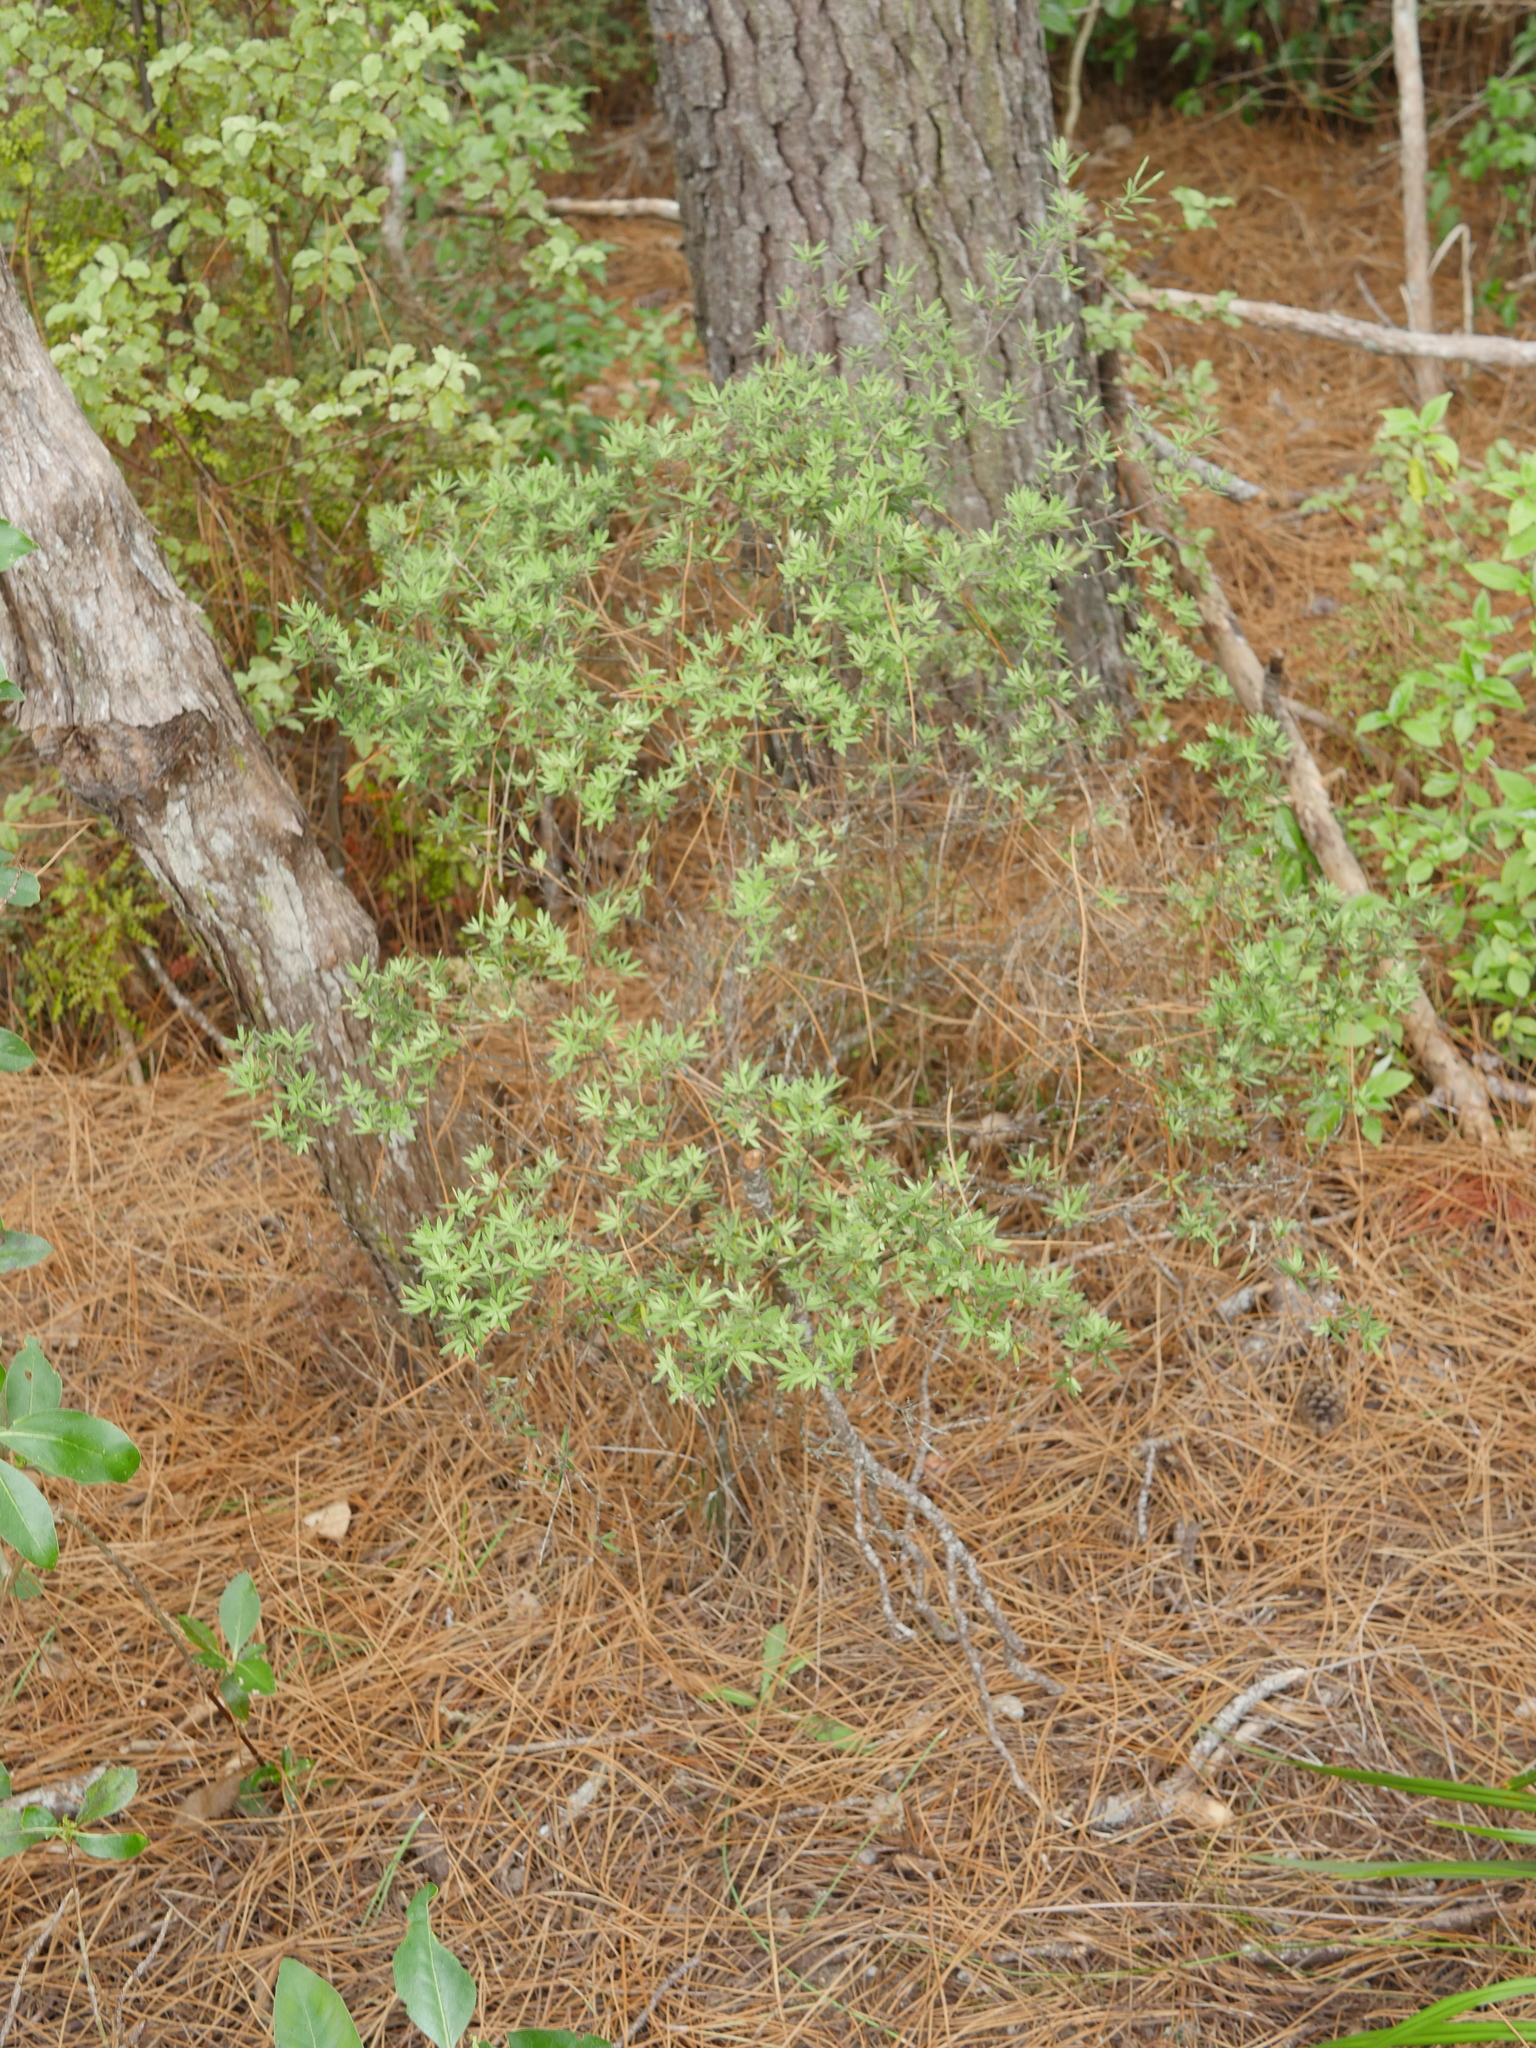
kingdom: Plantae
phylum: Tracheophyta
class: Magnoliopsida
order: Ericales
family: Ericaceae
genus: Leucopogon
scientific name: Leucopogon fasciculatus
